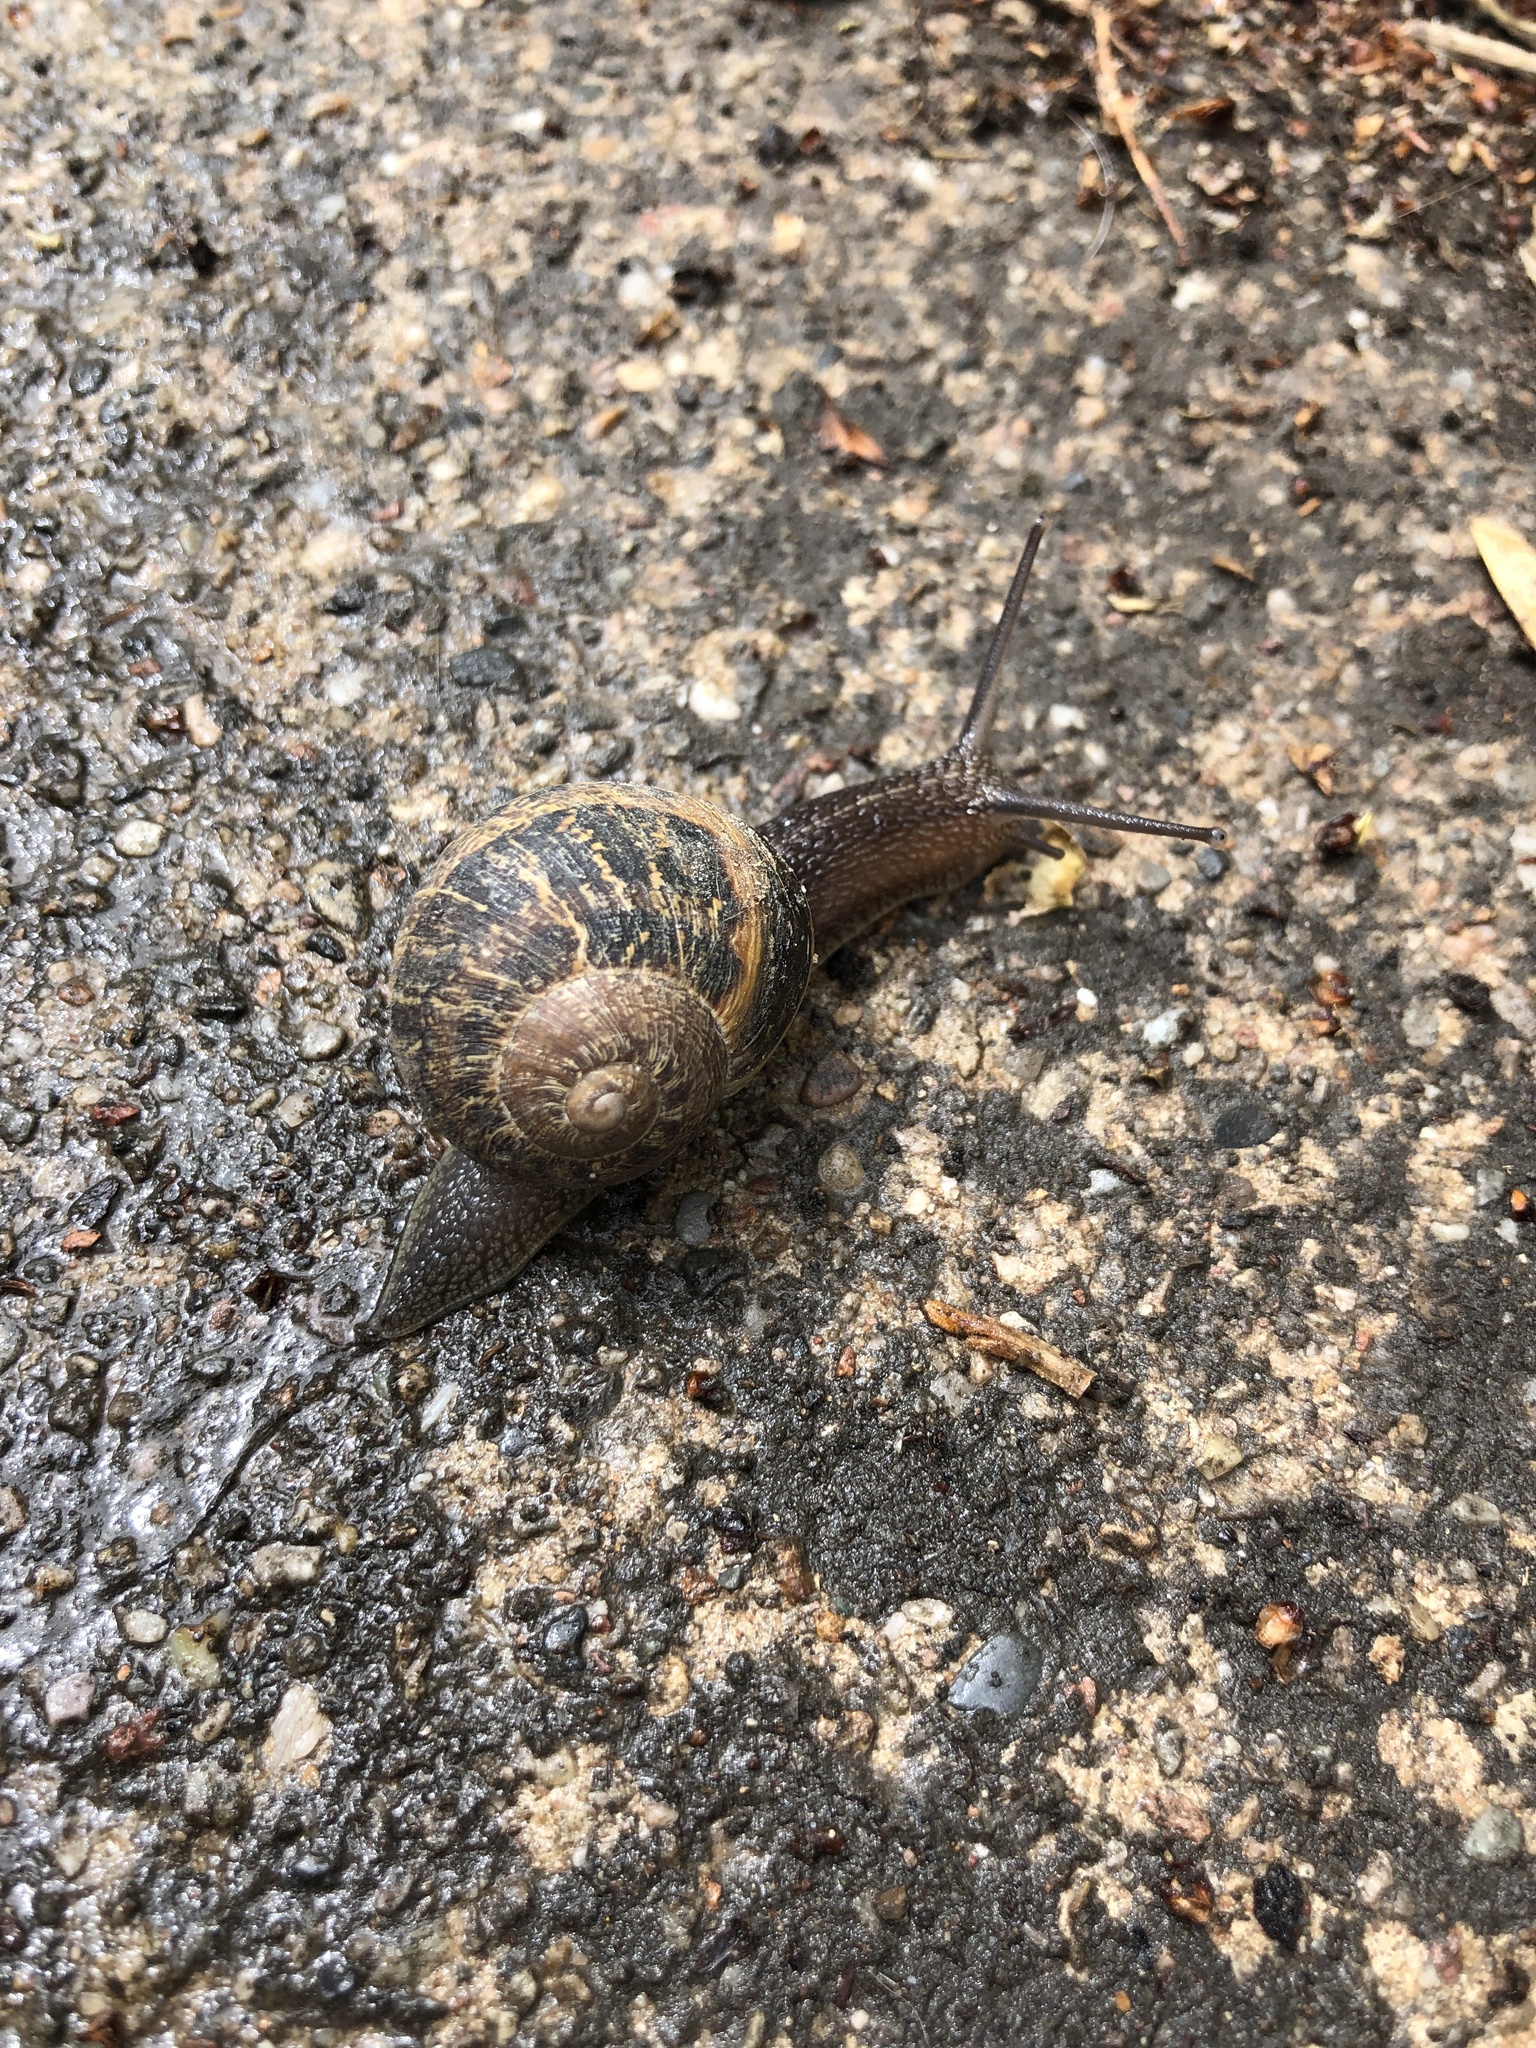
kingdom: Animalia
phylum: Mollusca
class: Gastropoda
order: Stylommatophora
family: Helicidae
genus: Cornu
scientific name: Cornu aspersum
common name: Brown garden snail
